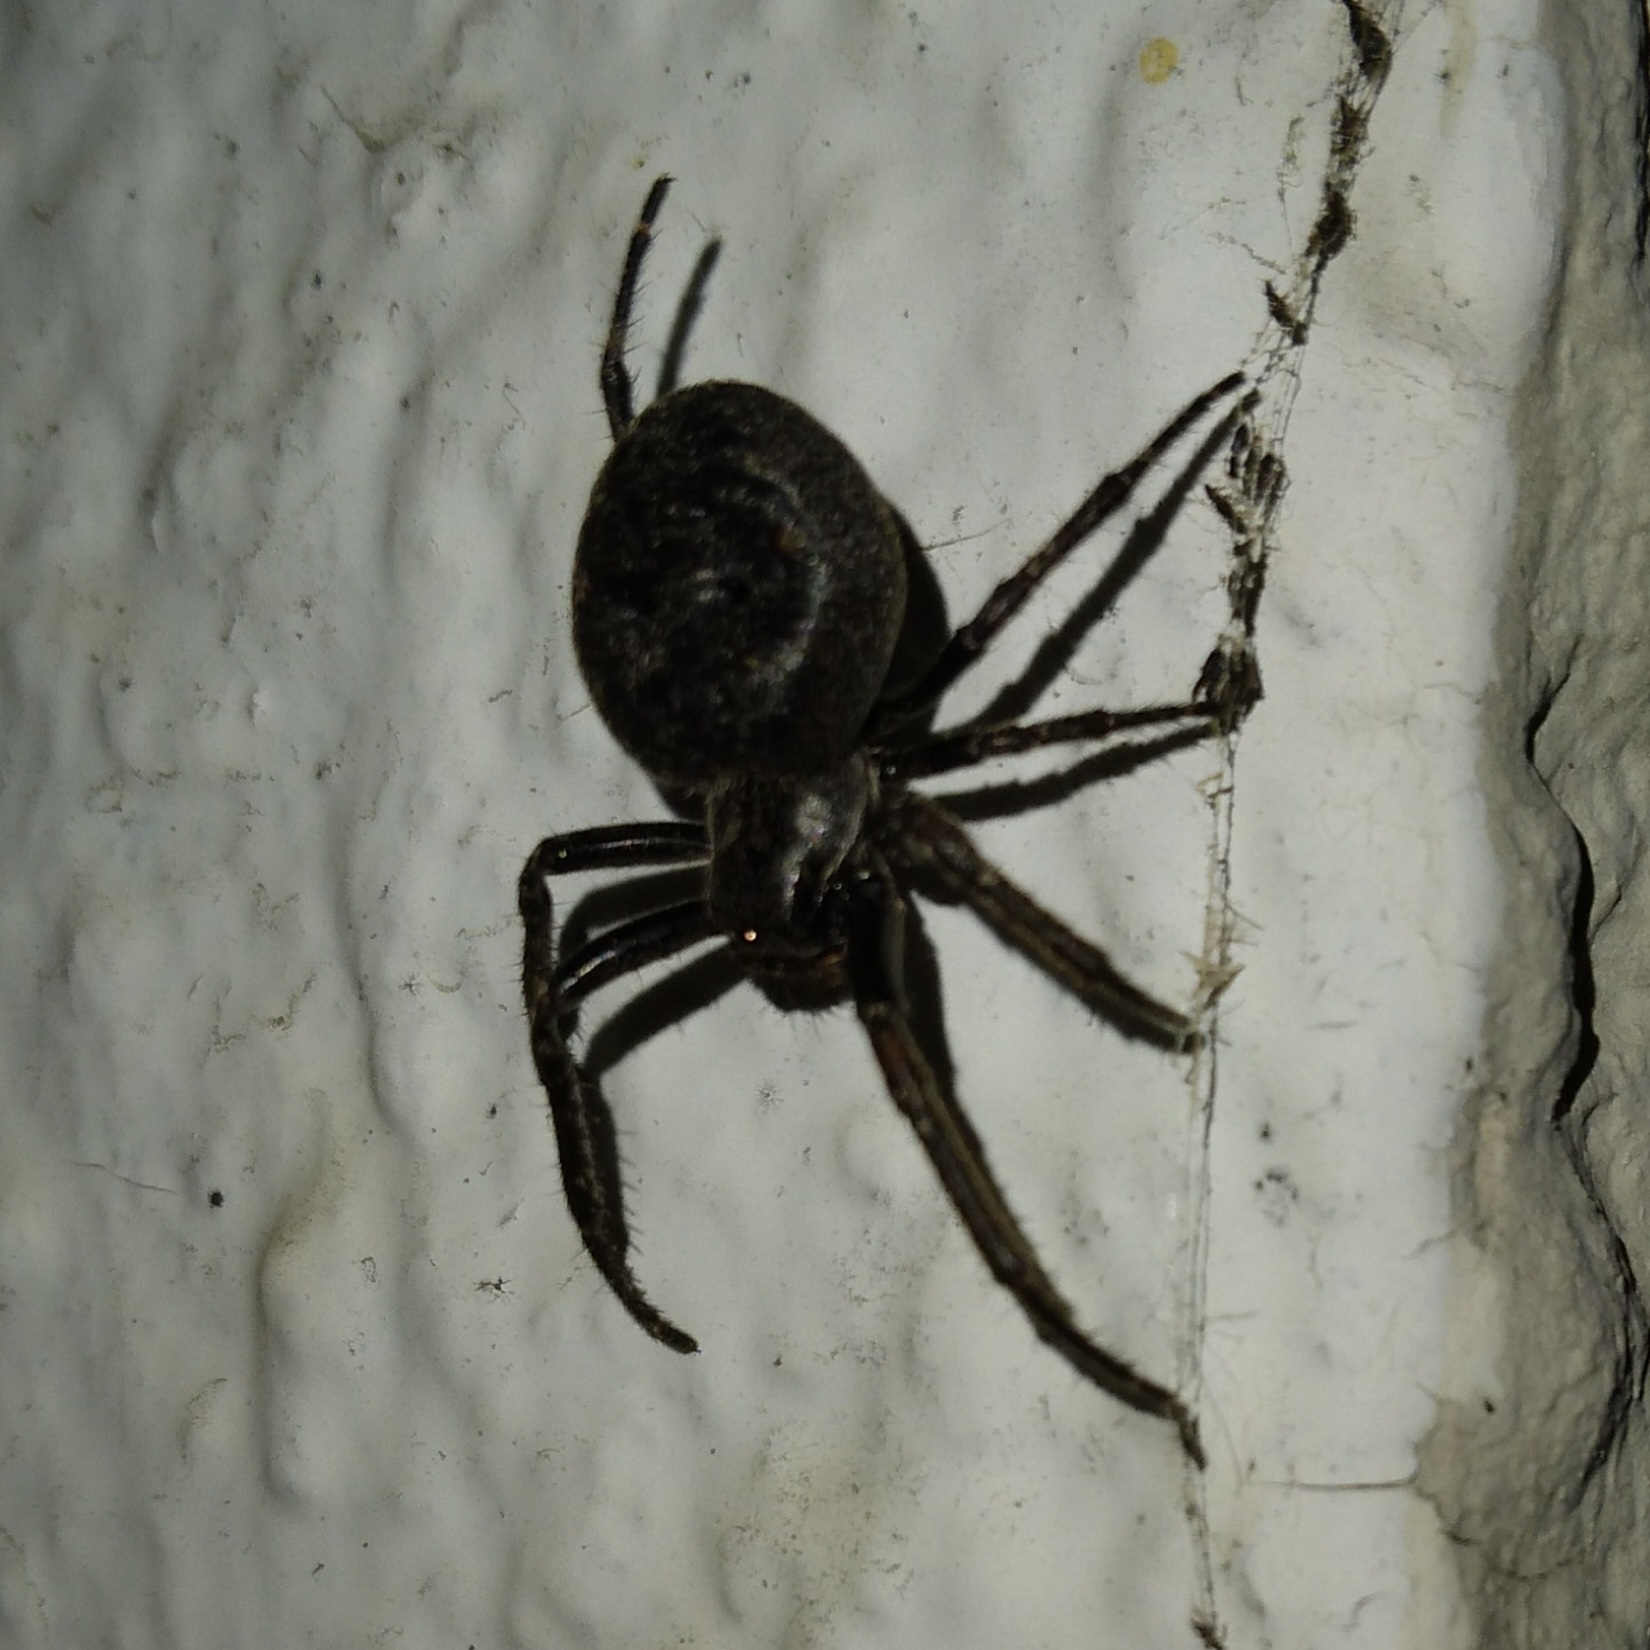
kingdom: Animalia
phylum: Arthropoda
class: Arachnida
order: Araneae
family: Araneidae
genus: Nuctenea
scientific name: Nuctenea umbratica
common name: Toad spider
